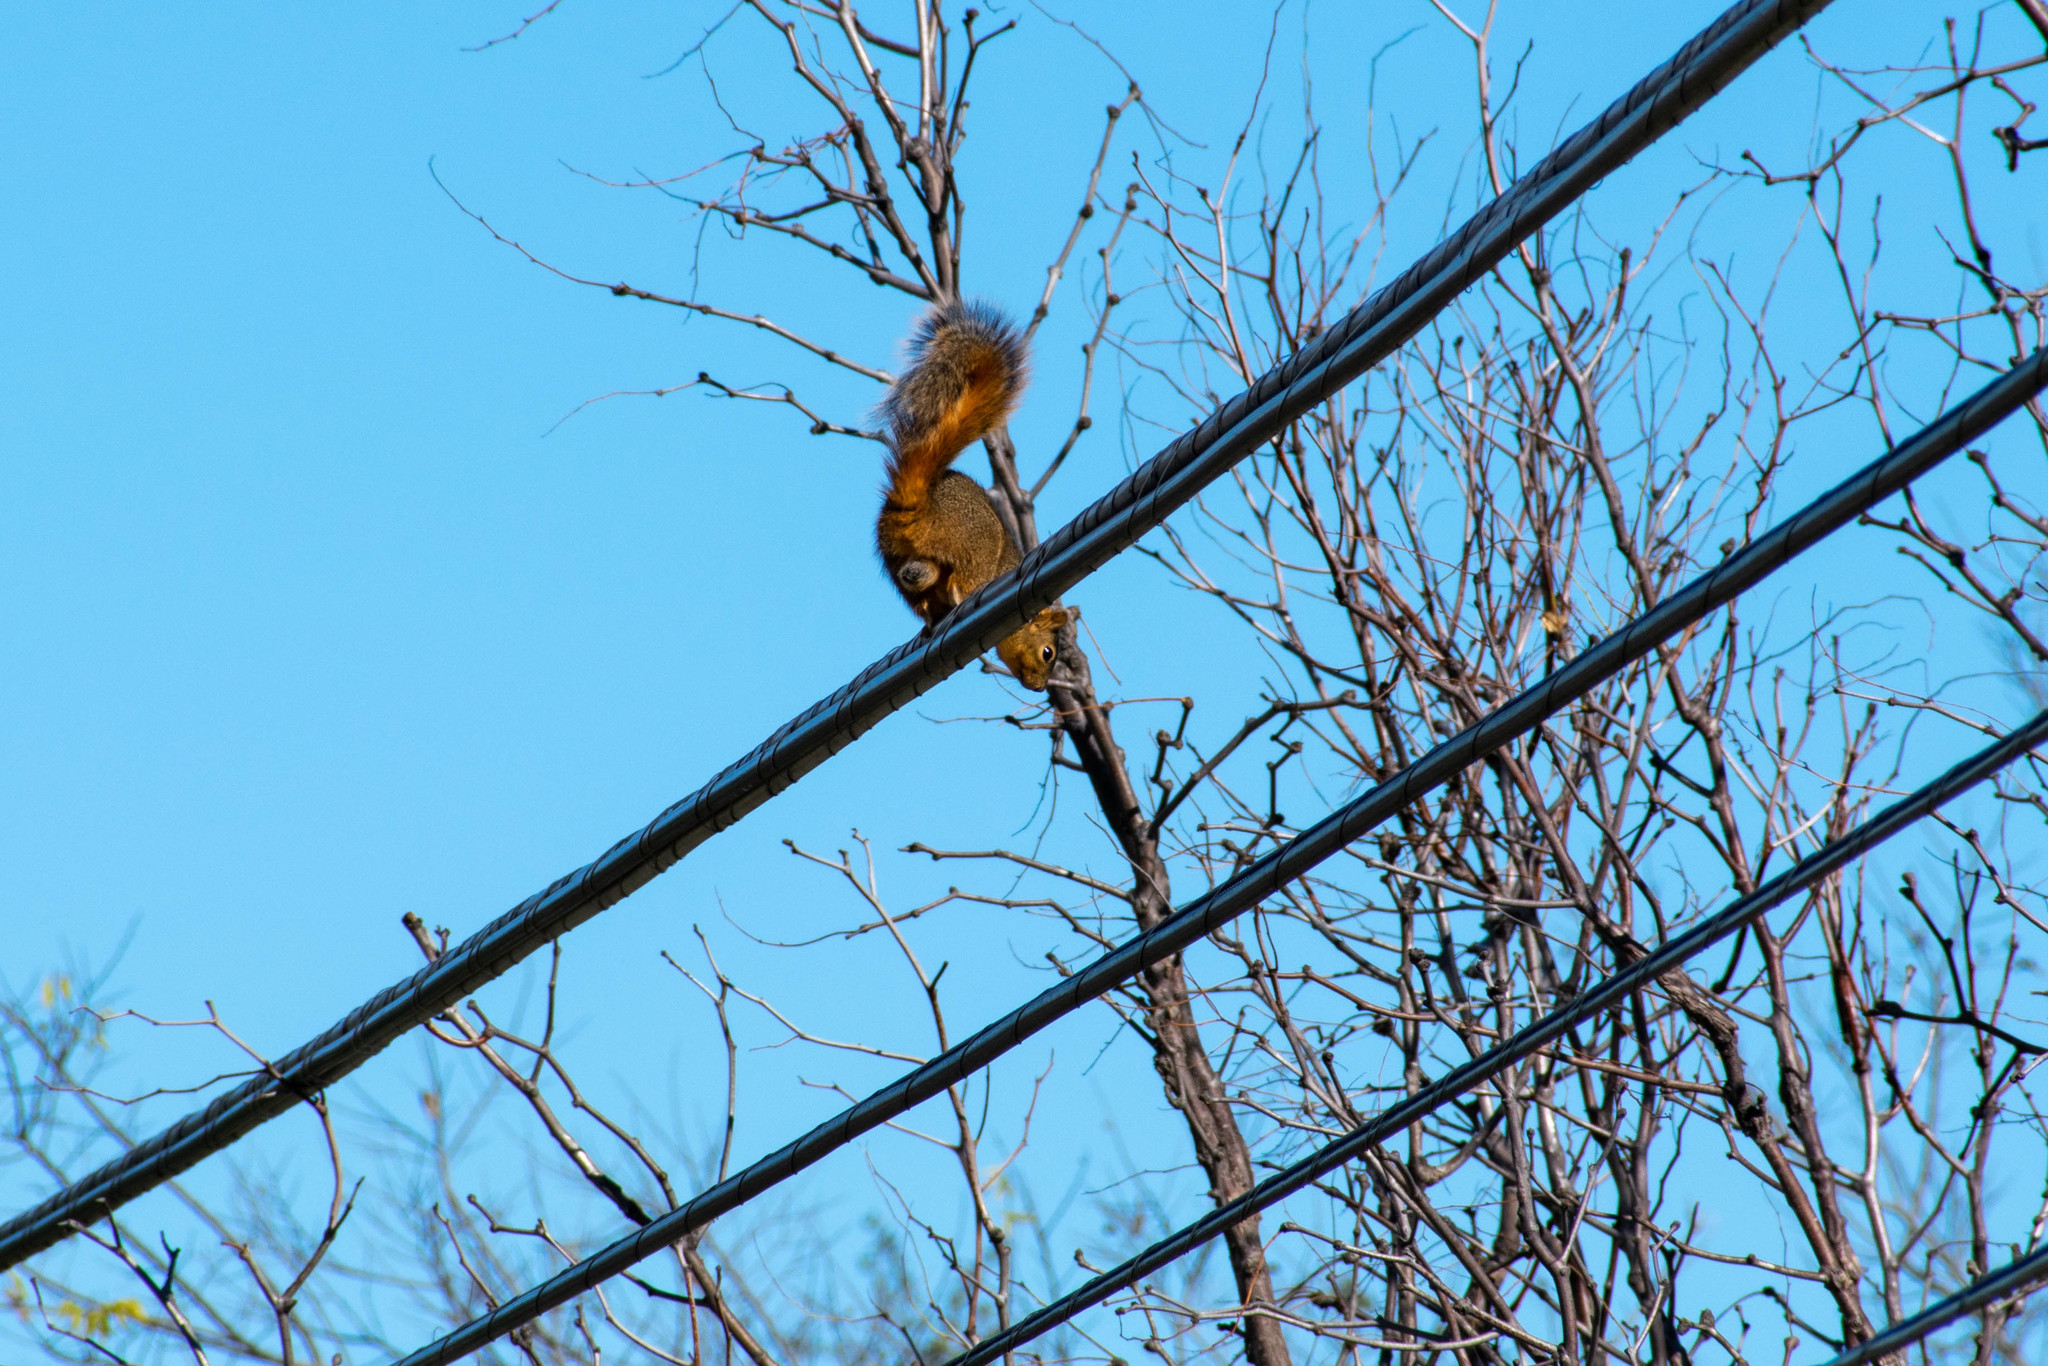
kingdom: Animalia
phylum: Chordata
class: Mammalia
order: Rodentia
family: Sciuridae
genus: Sciurus
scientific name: Sciurus niger
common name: Fox squirrel
